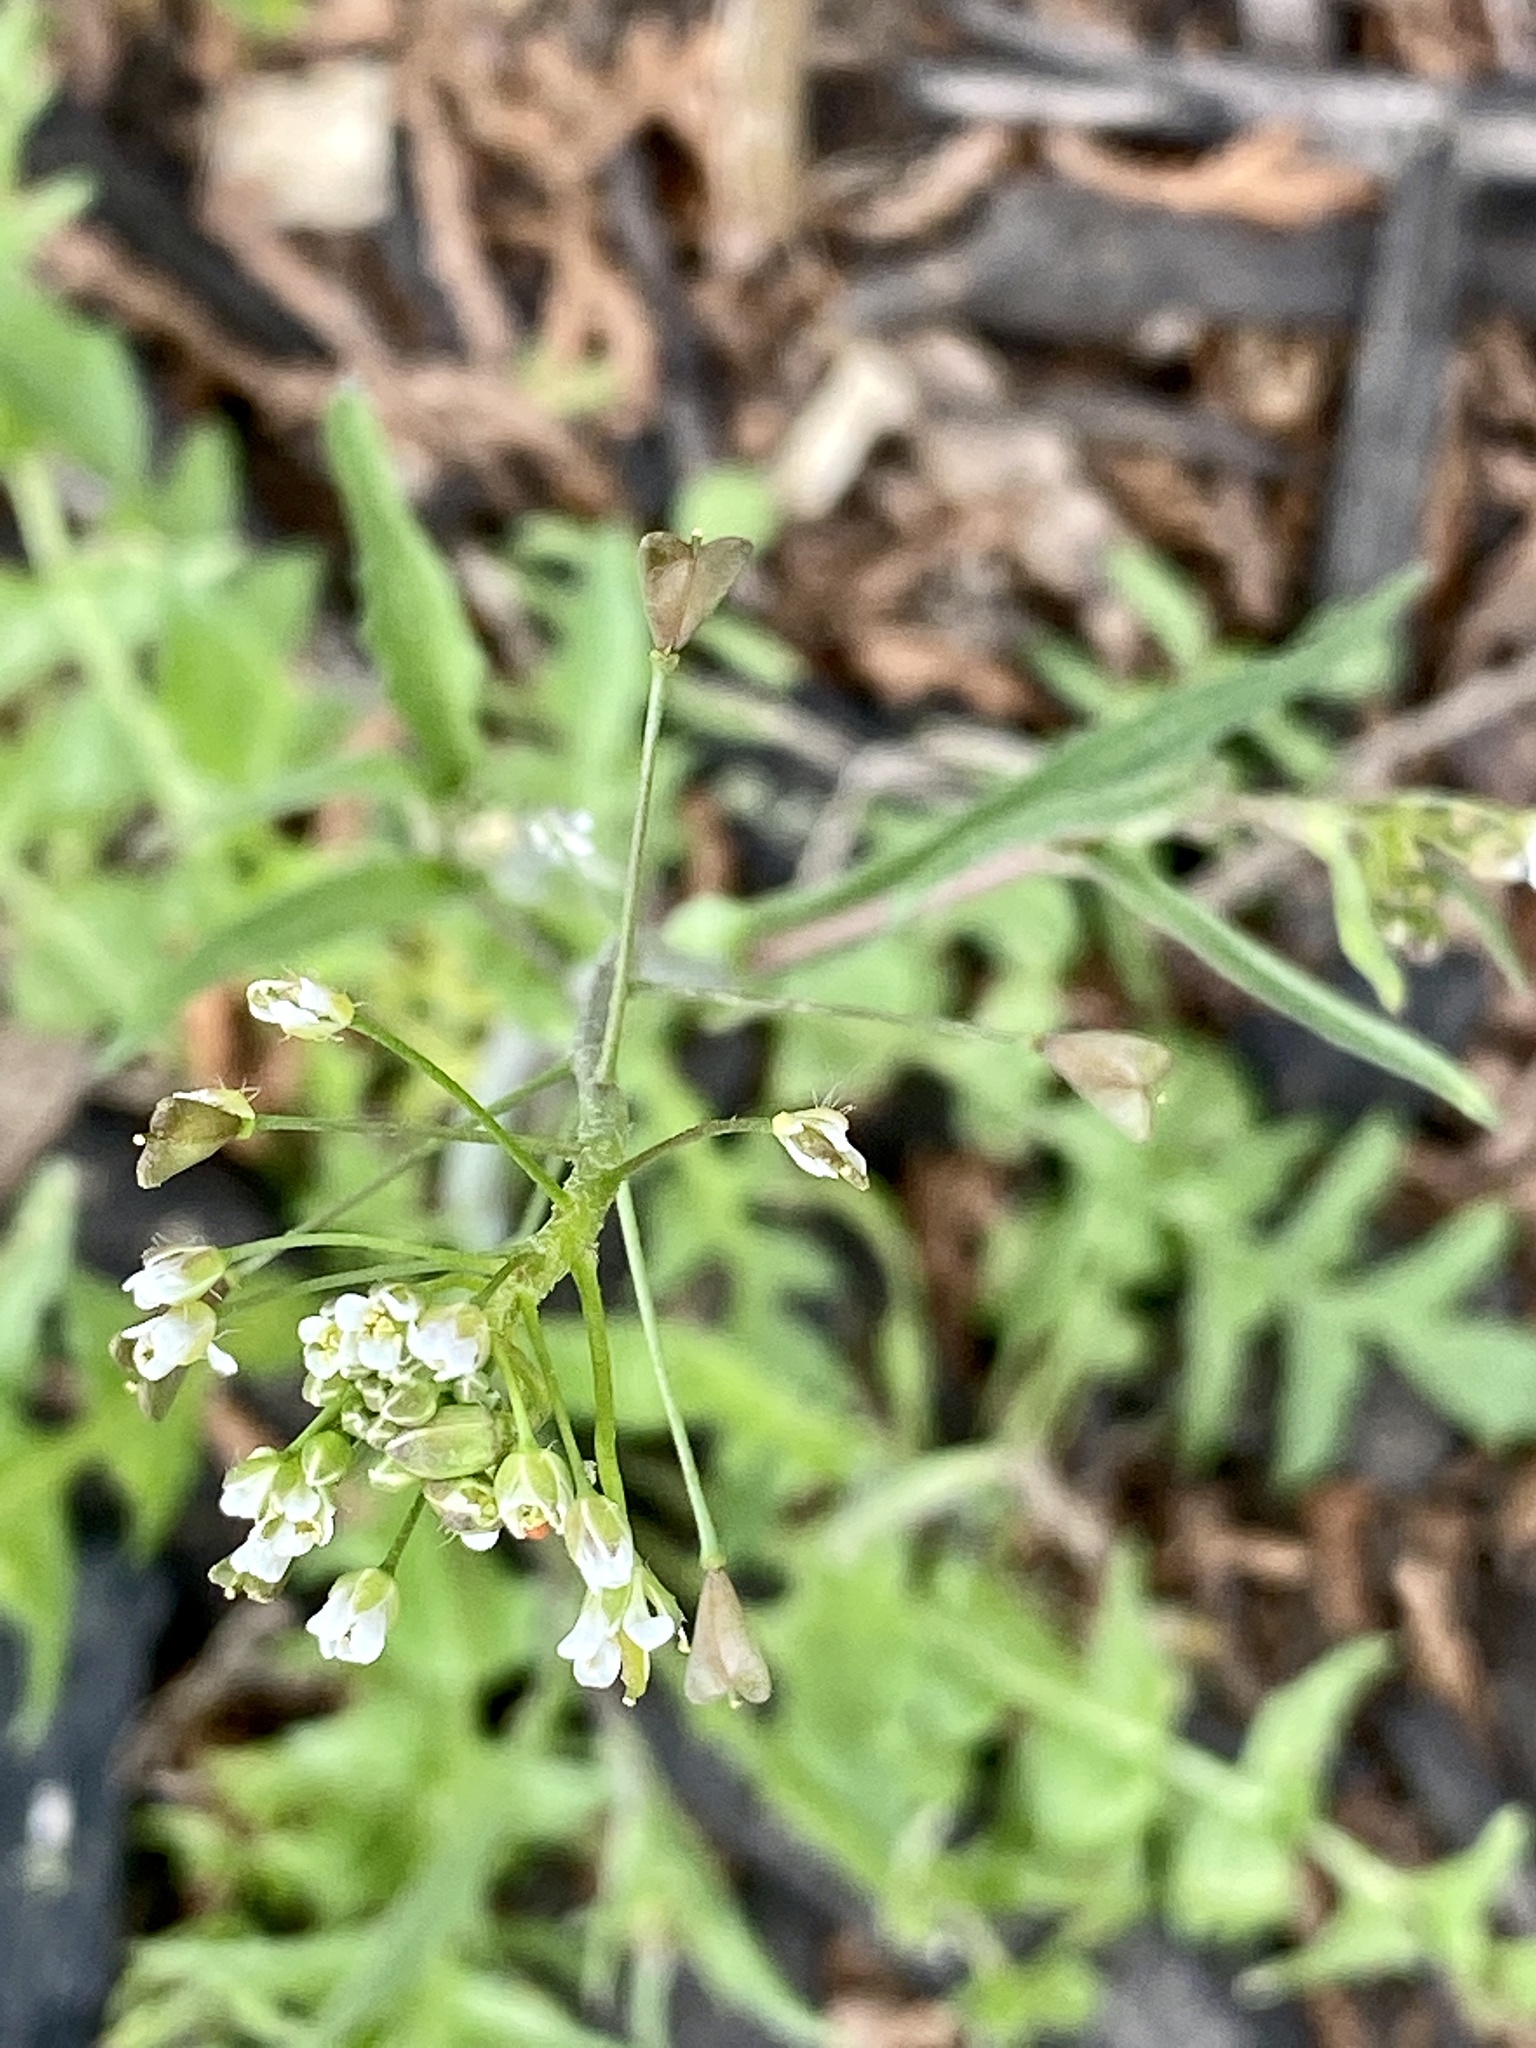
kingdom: Plantae
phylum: Tracheophyta
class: Magnoliopsida
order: Brassicales
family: Brassicaceae
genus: Capsella
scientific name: Capsella bursa-pastoris
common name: Shepherd's purse
